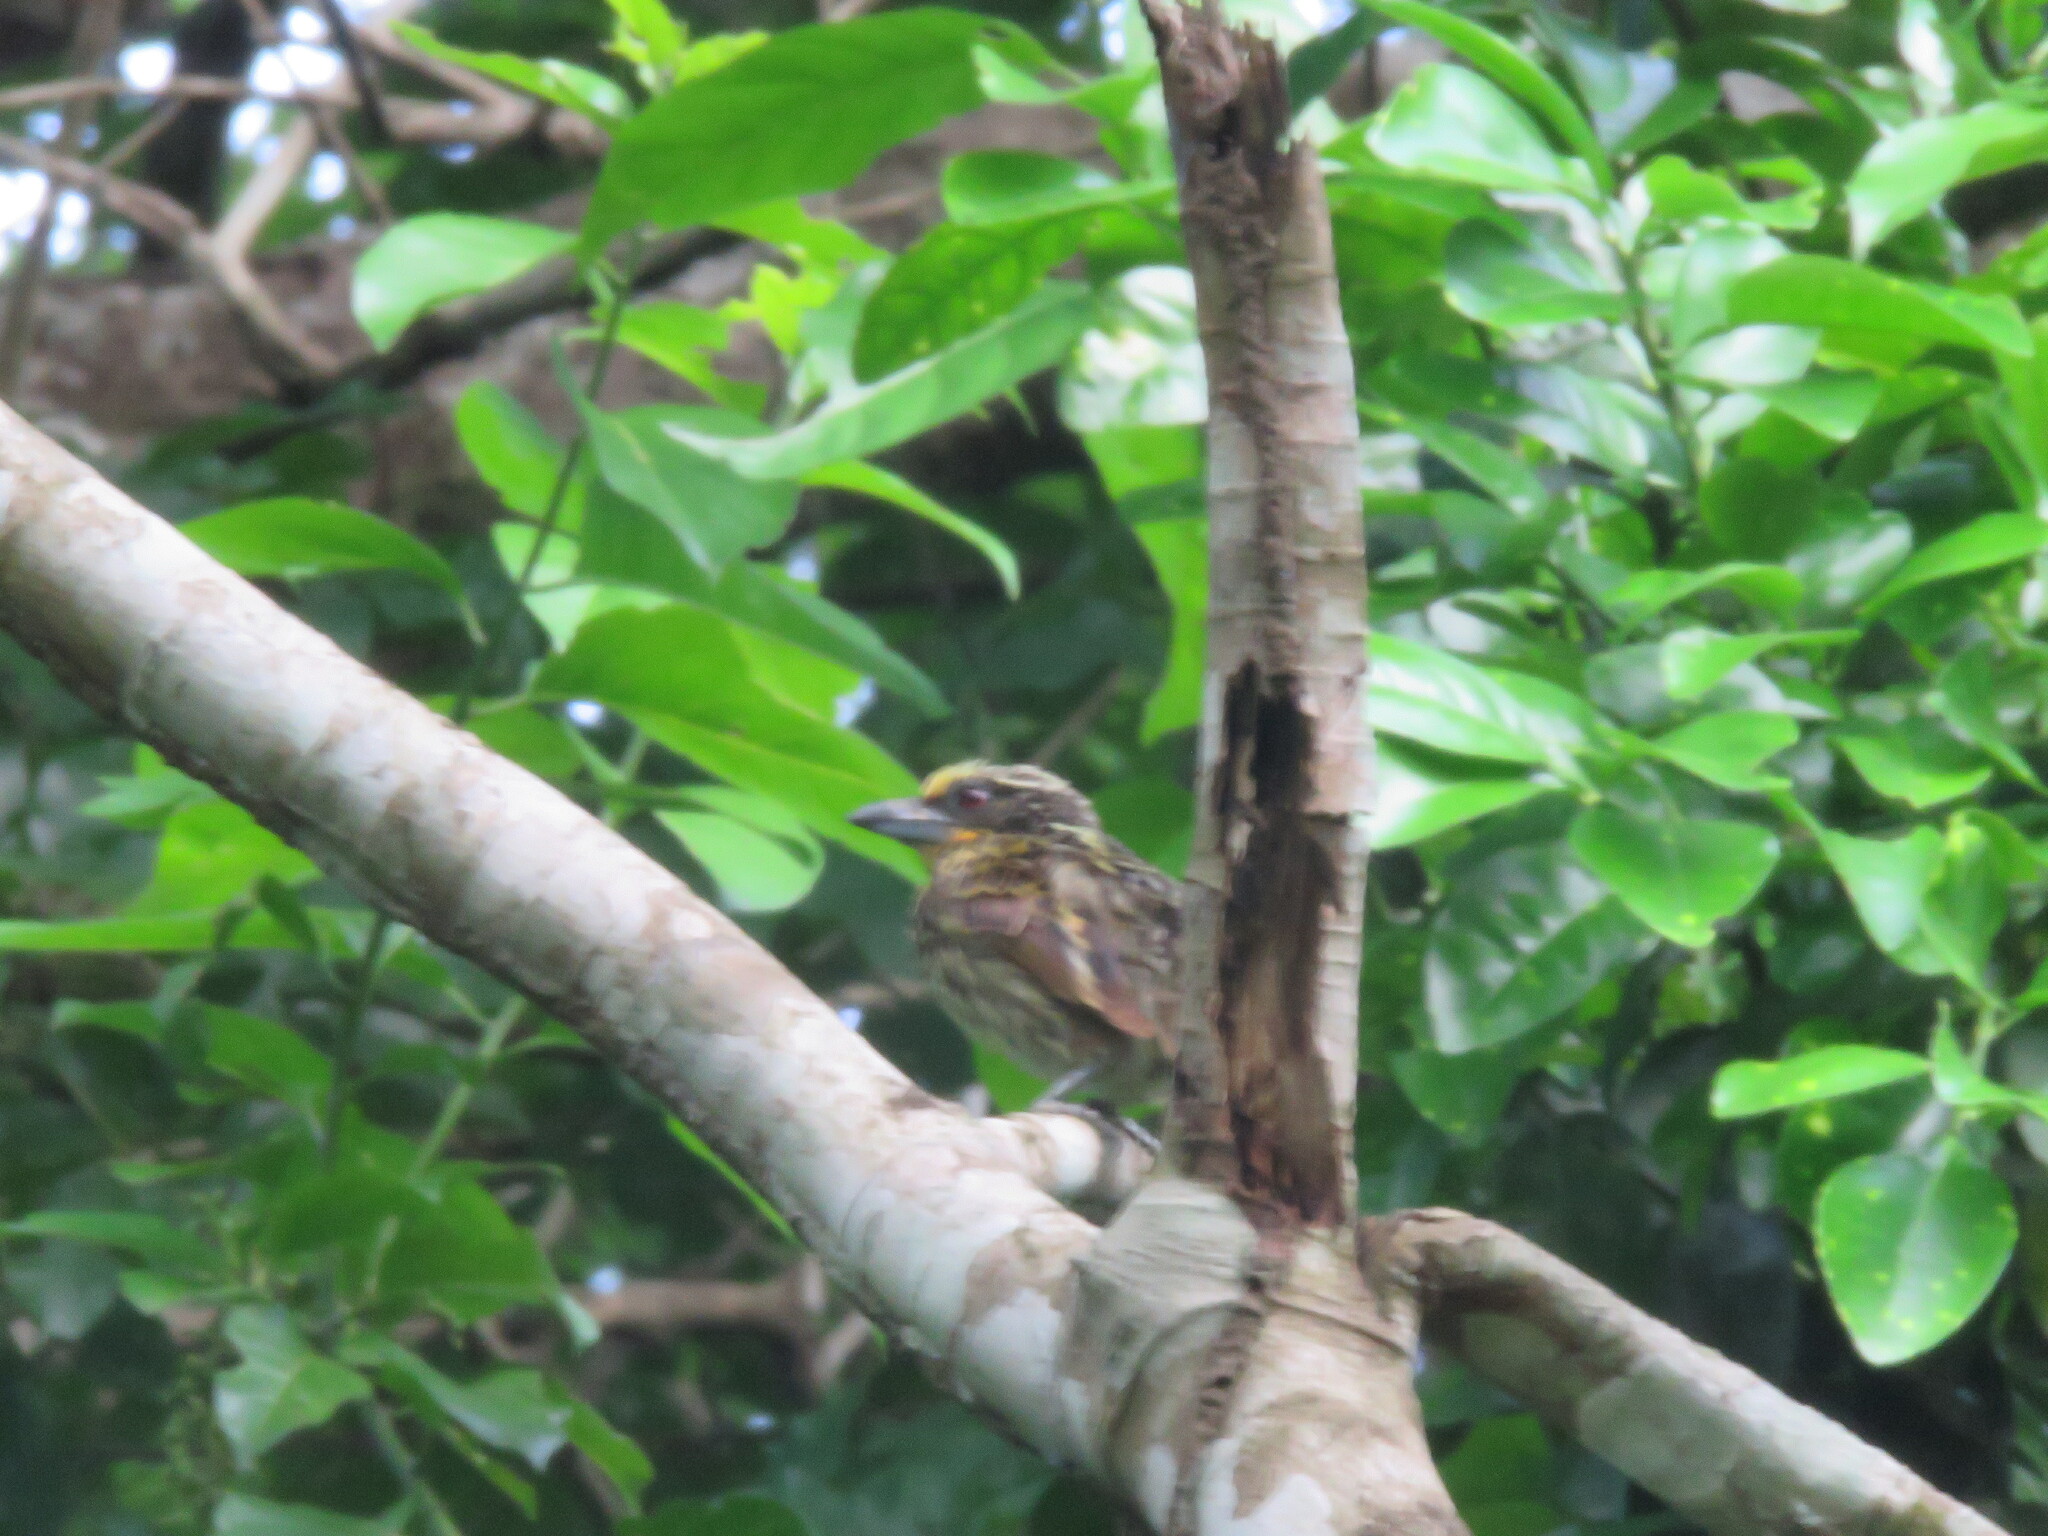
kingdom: Animalia
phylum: Chordata
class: Aves
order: Piciformes
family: Capitonidae
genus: Capito
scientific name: Capito auratus
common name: Gilded barbet
